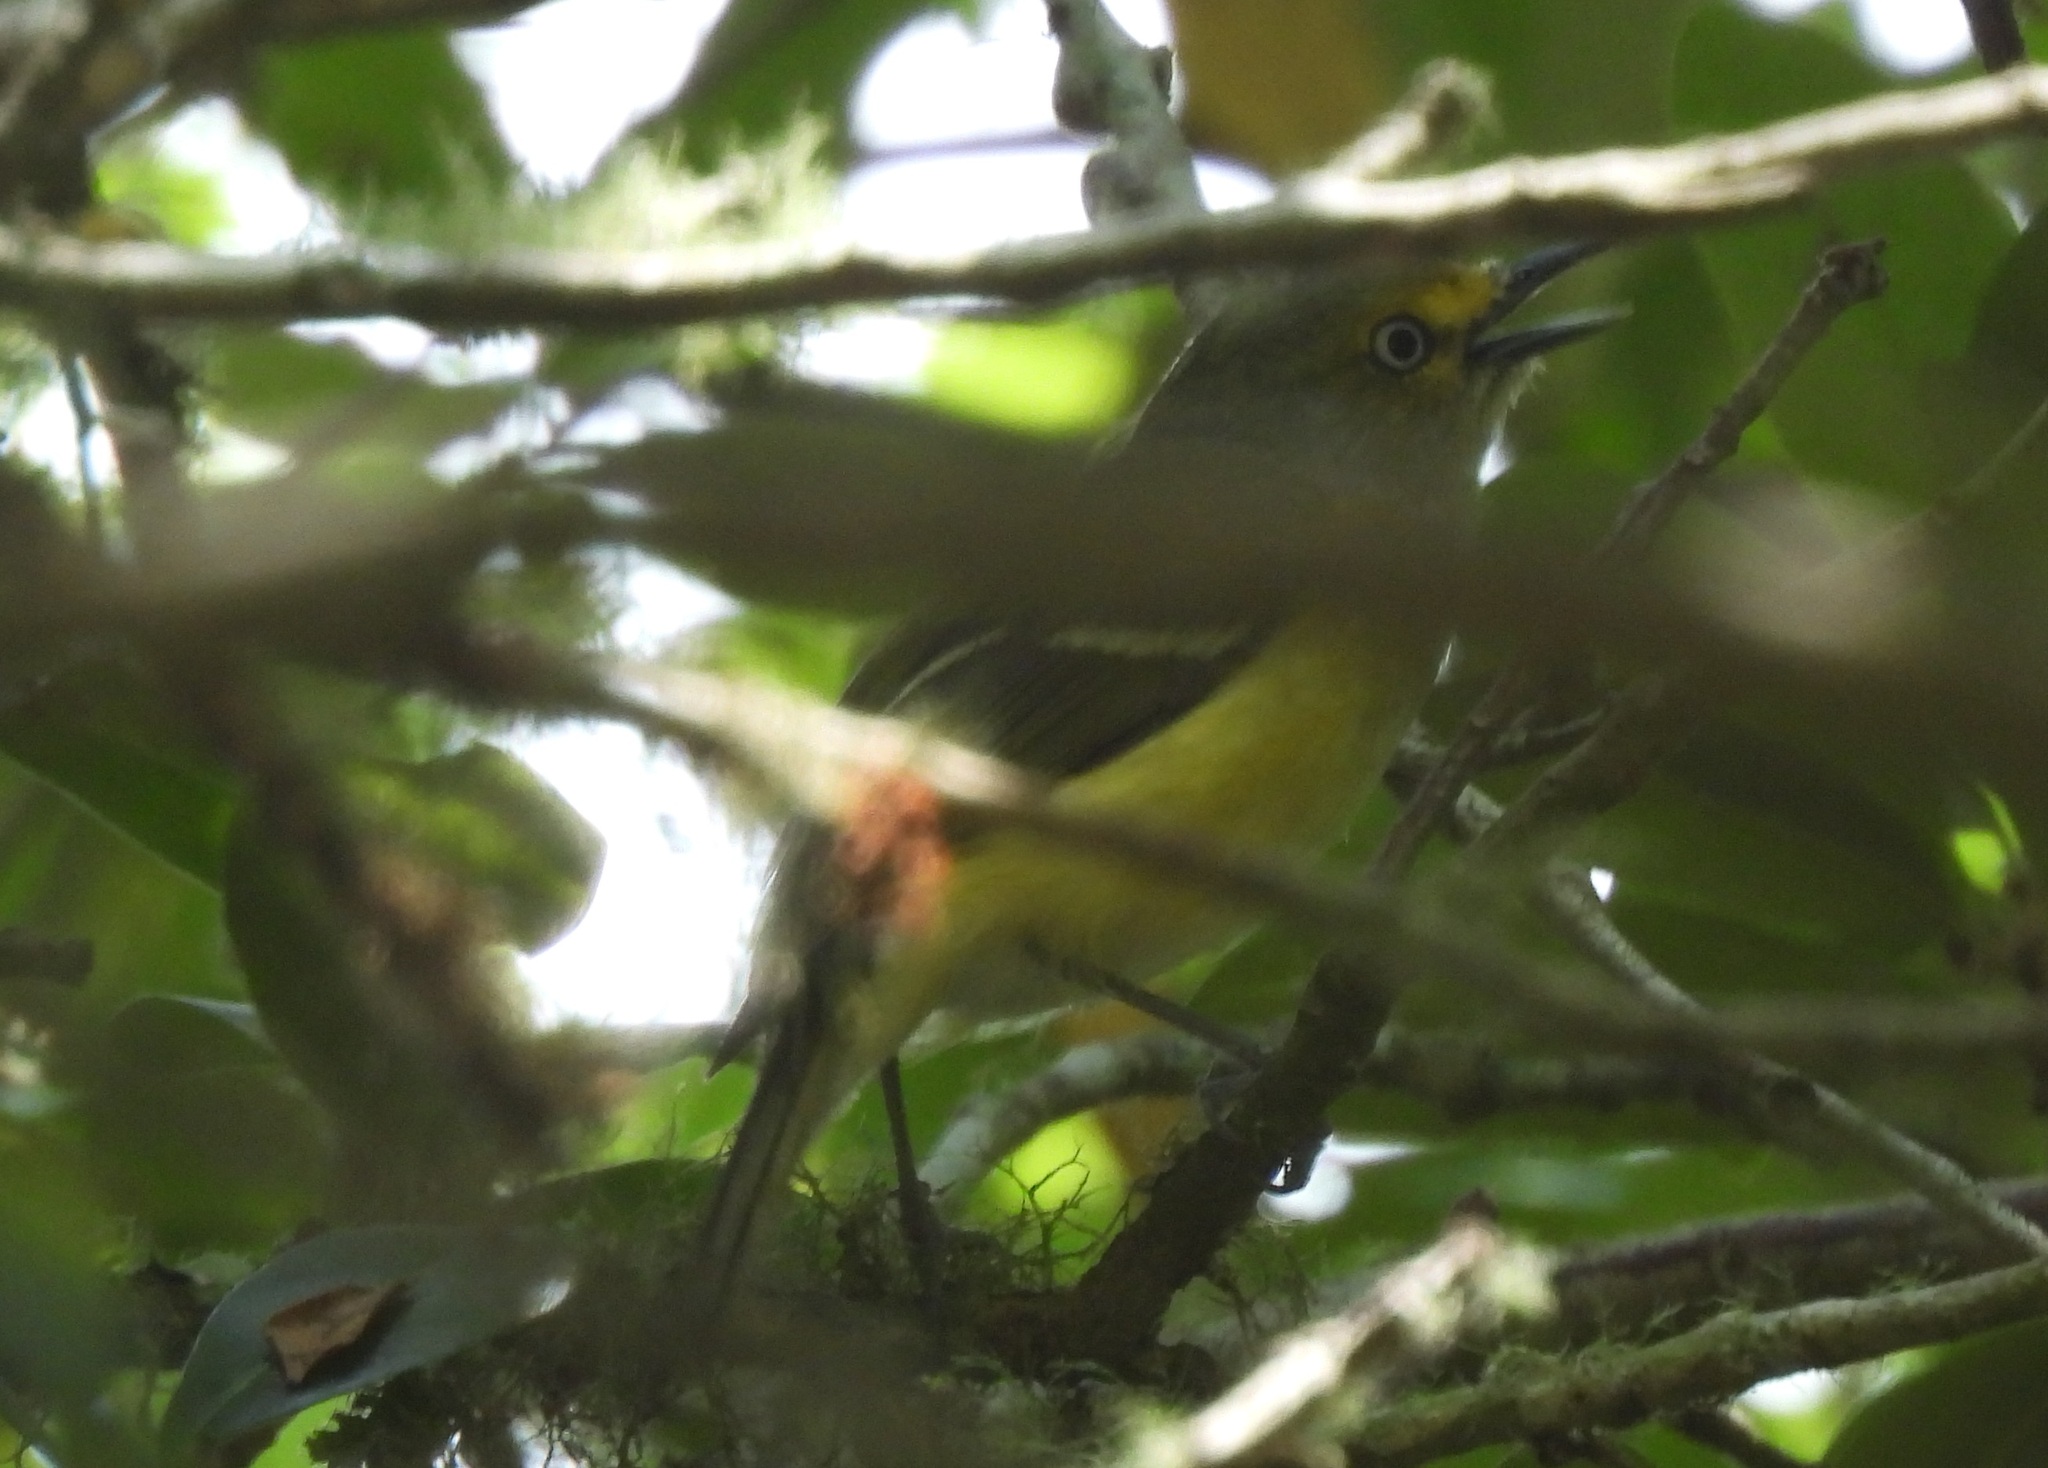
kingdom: Animalia
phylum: Chordata
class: Aves
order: Passeriformes
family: Vireonidae
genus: Vireo
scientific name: Vireo griseus
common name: White-eyed vireo
